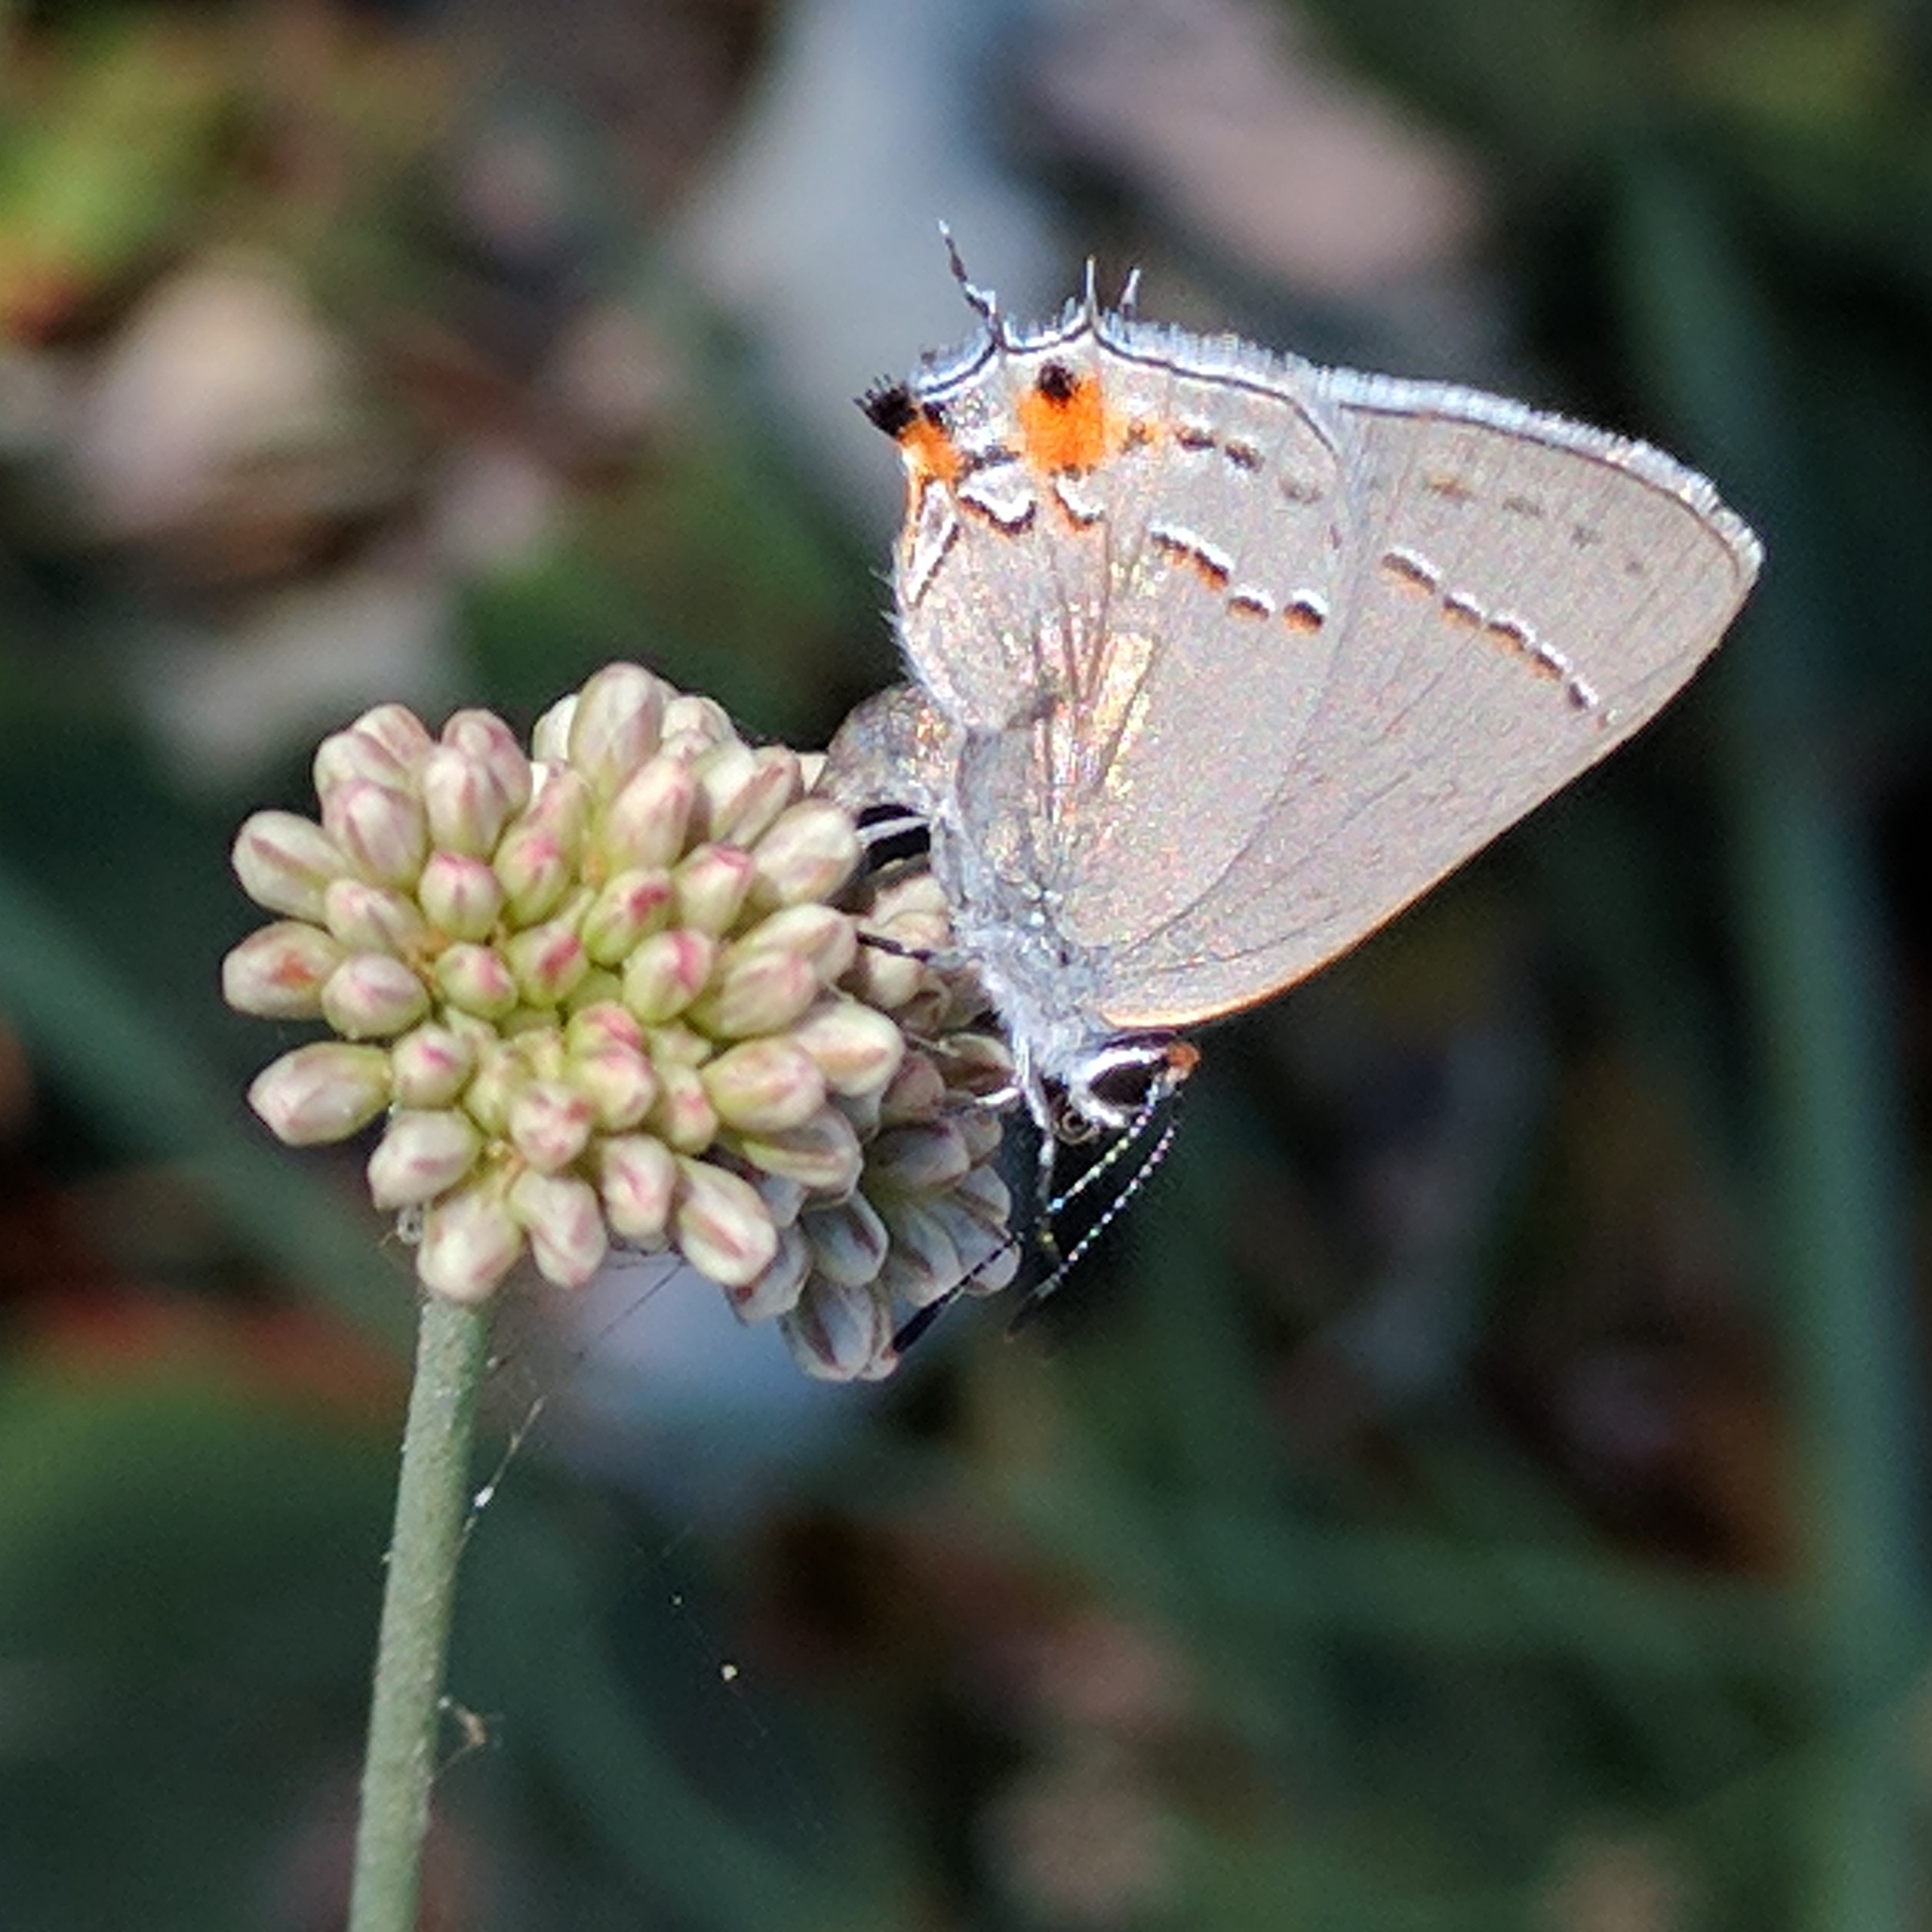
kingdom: Animalia
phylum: Arthropoda
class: Insecta
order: Lepidoptera
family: Lycaenidae
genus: Strymon
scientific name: Strymon melinus
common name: Gray hairstreak
